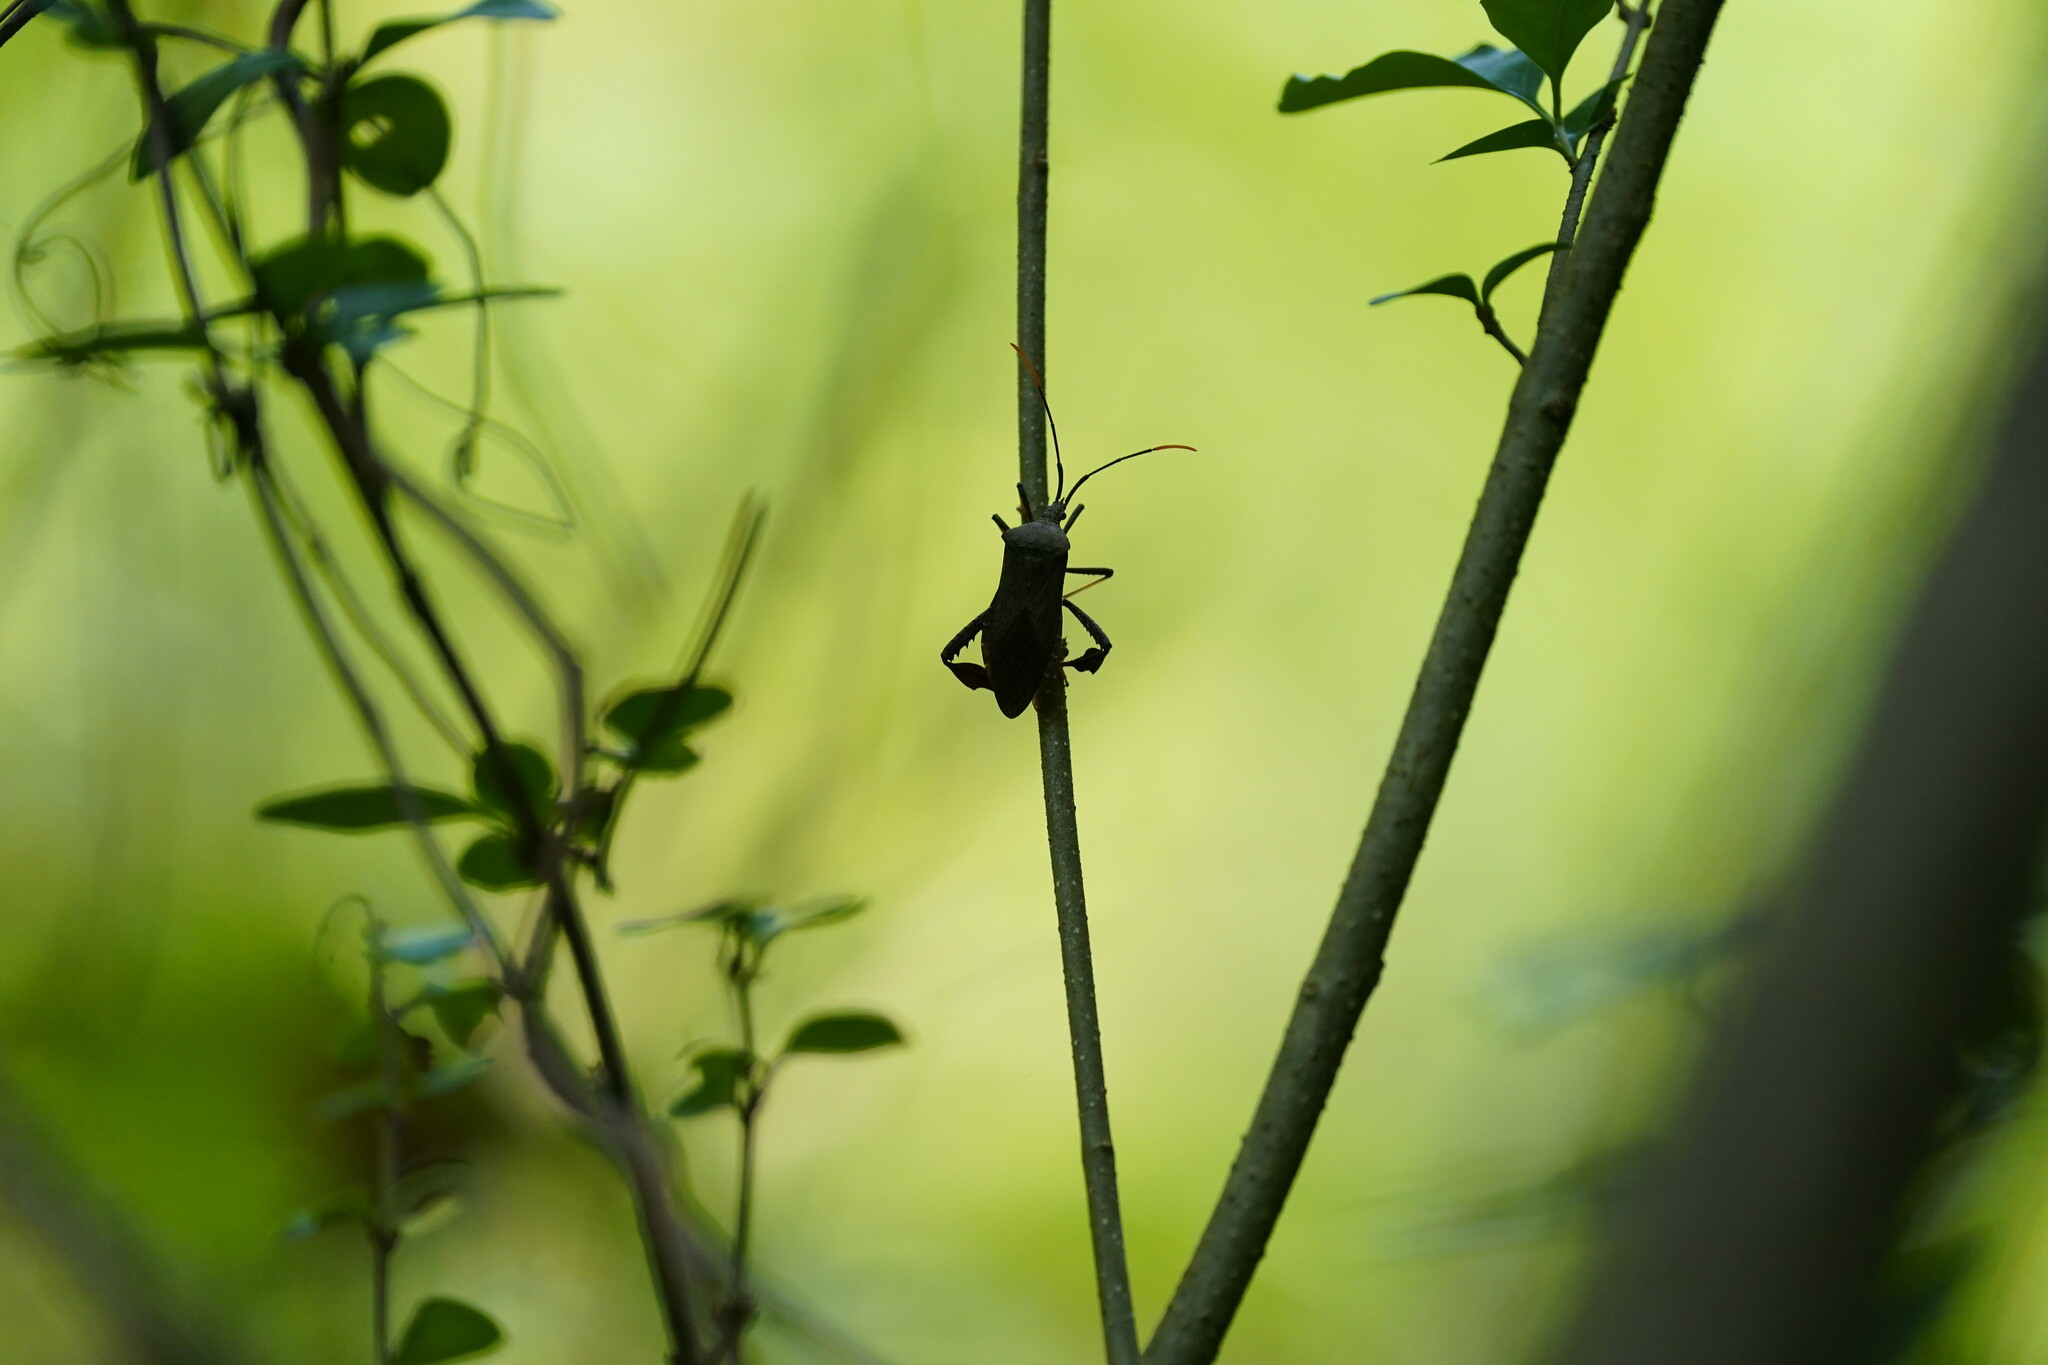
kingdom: Animalia
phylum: Arthropoda
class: Insecta
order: Hemiptera
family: Coreidae
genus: Acanthocephala
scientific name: Acanthocephala terminalis
